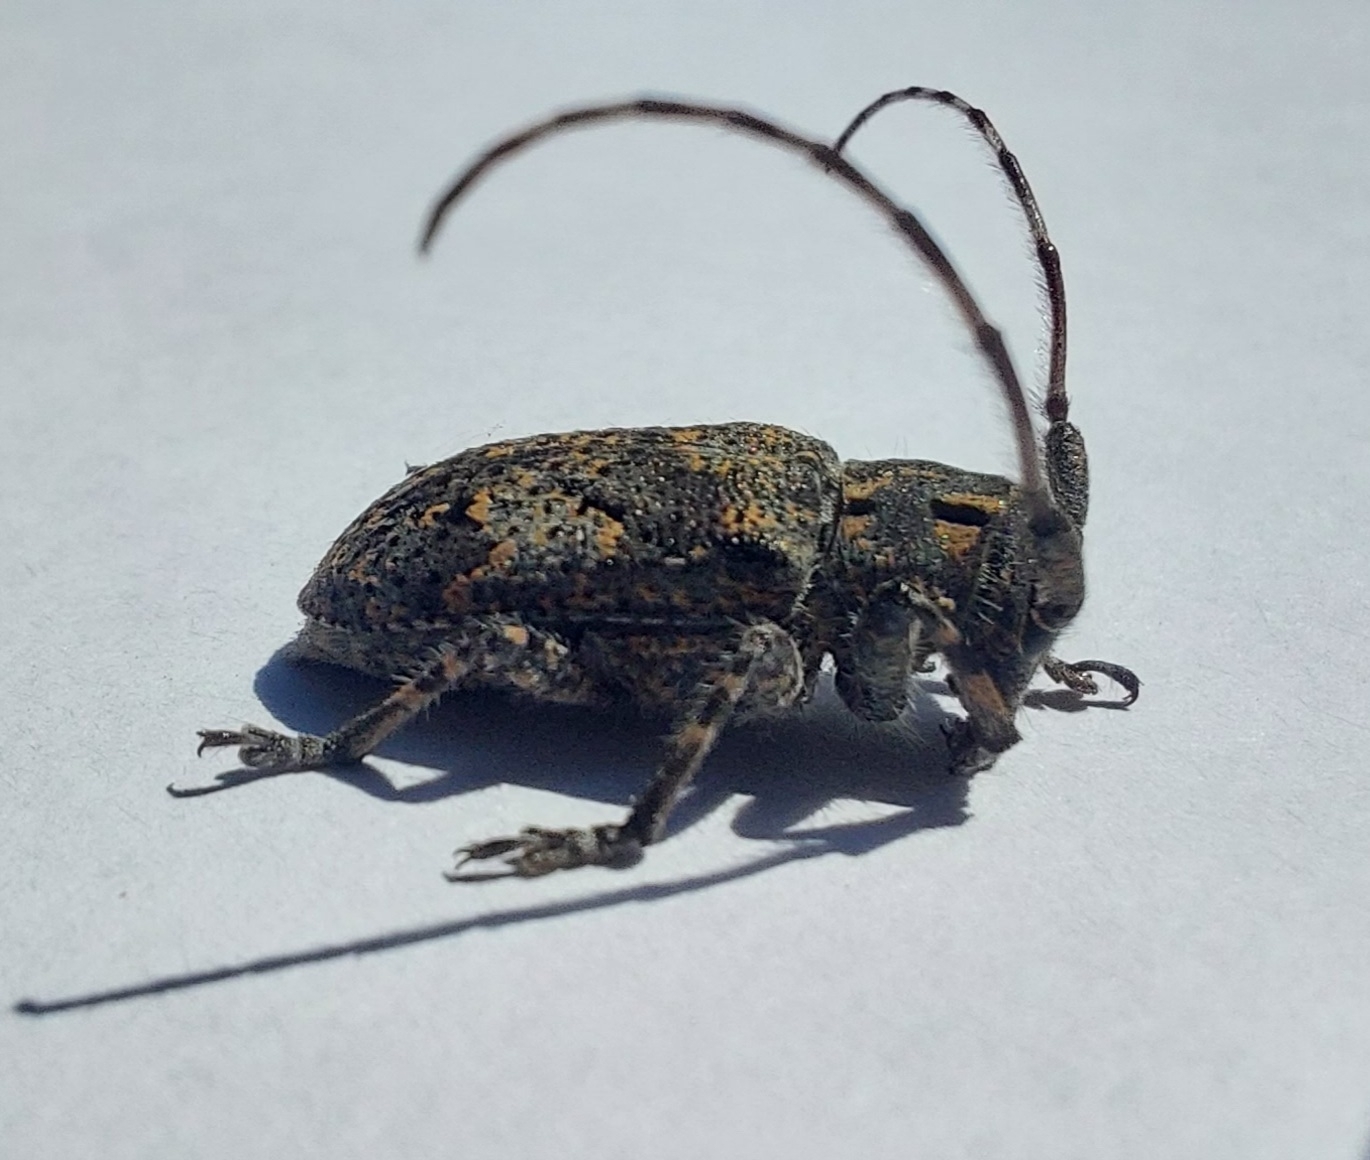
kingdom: Animalia
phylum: Arthropoda
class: Insecta
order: Coleoptera
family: Cerambycidae
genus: Mesosa
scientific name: Mesosa myops
